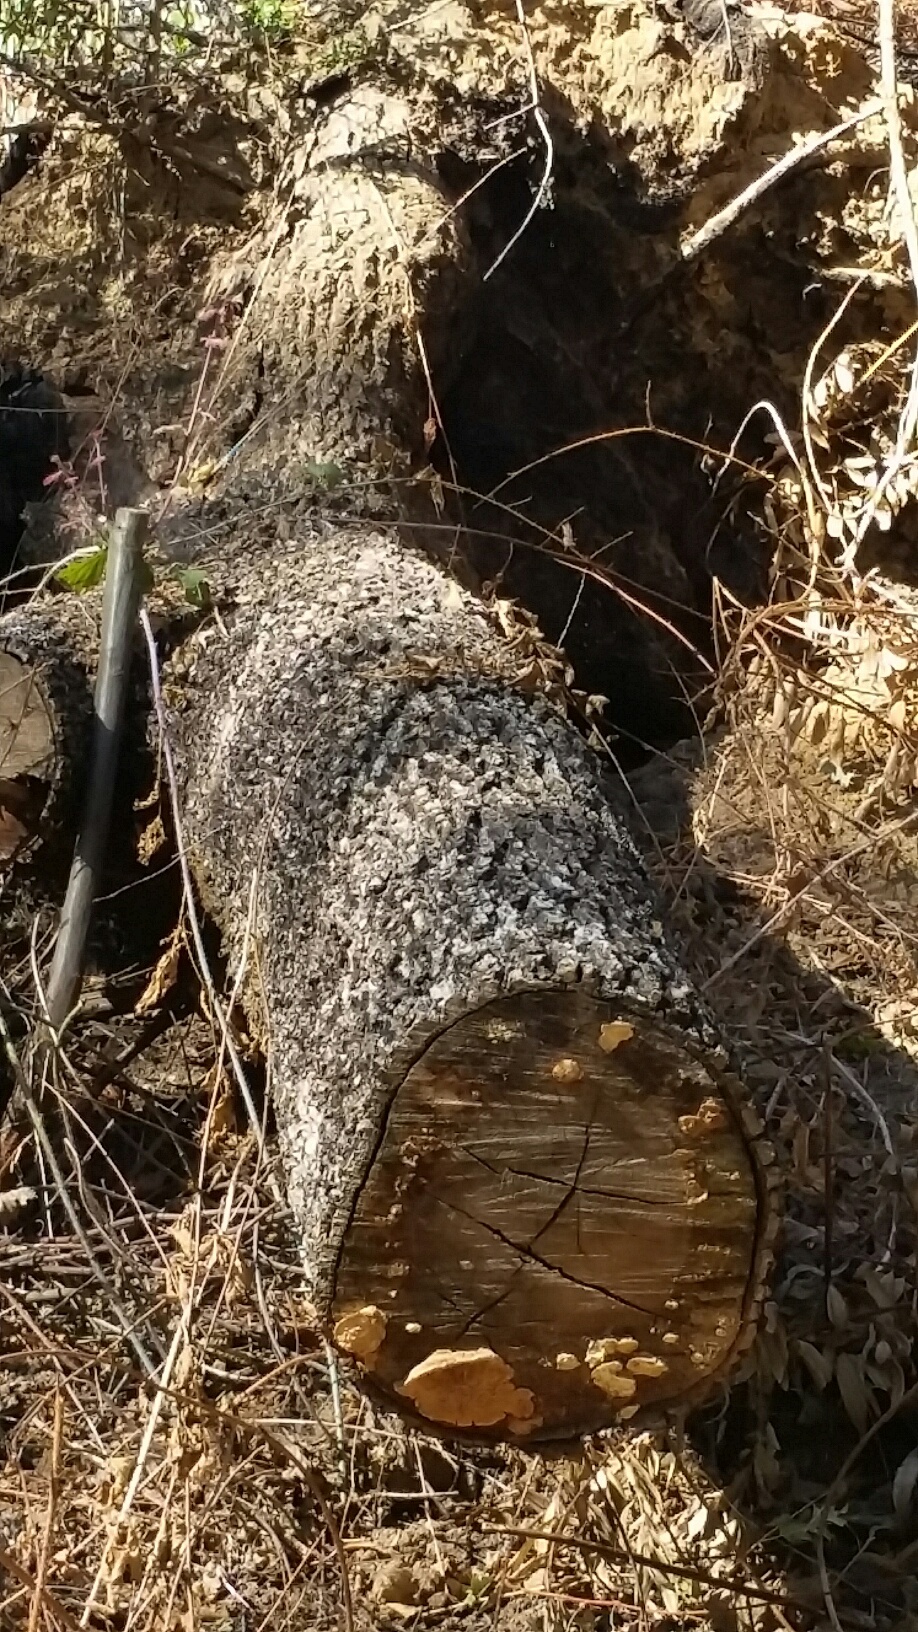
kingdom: Fungi
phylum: Basidiomycota
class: Agaricomycetes
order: Polyporales
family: Fomitopsidaceae
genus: Fomitopsis
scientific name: Fomitopsis
